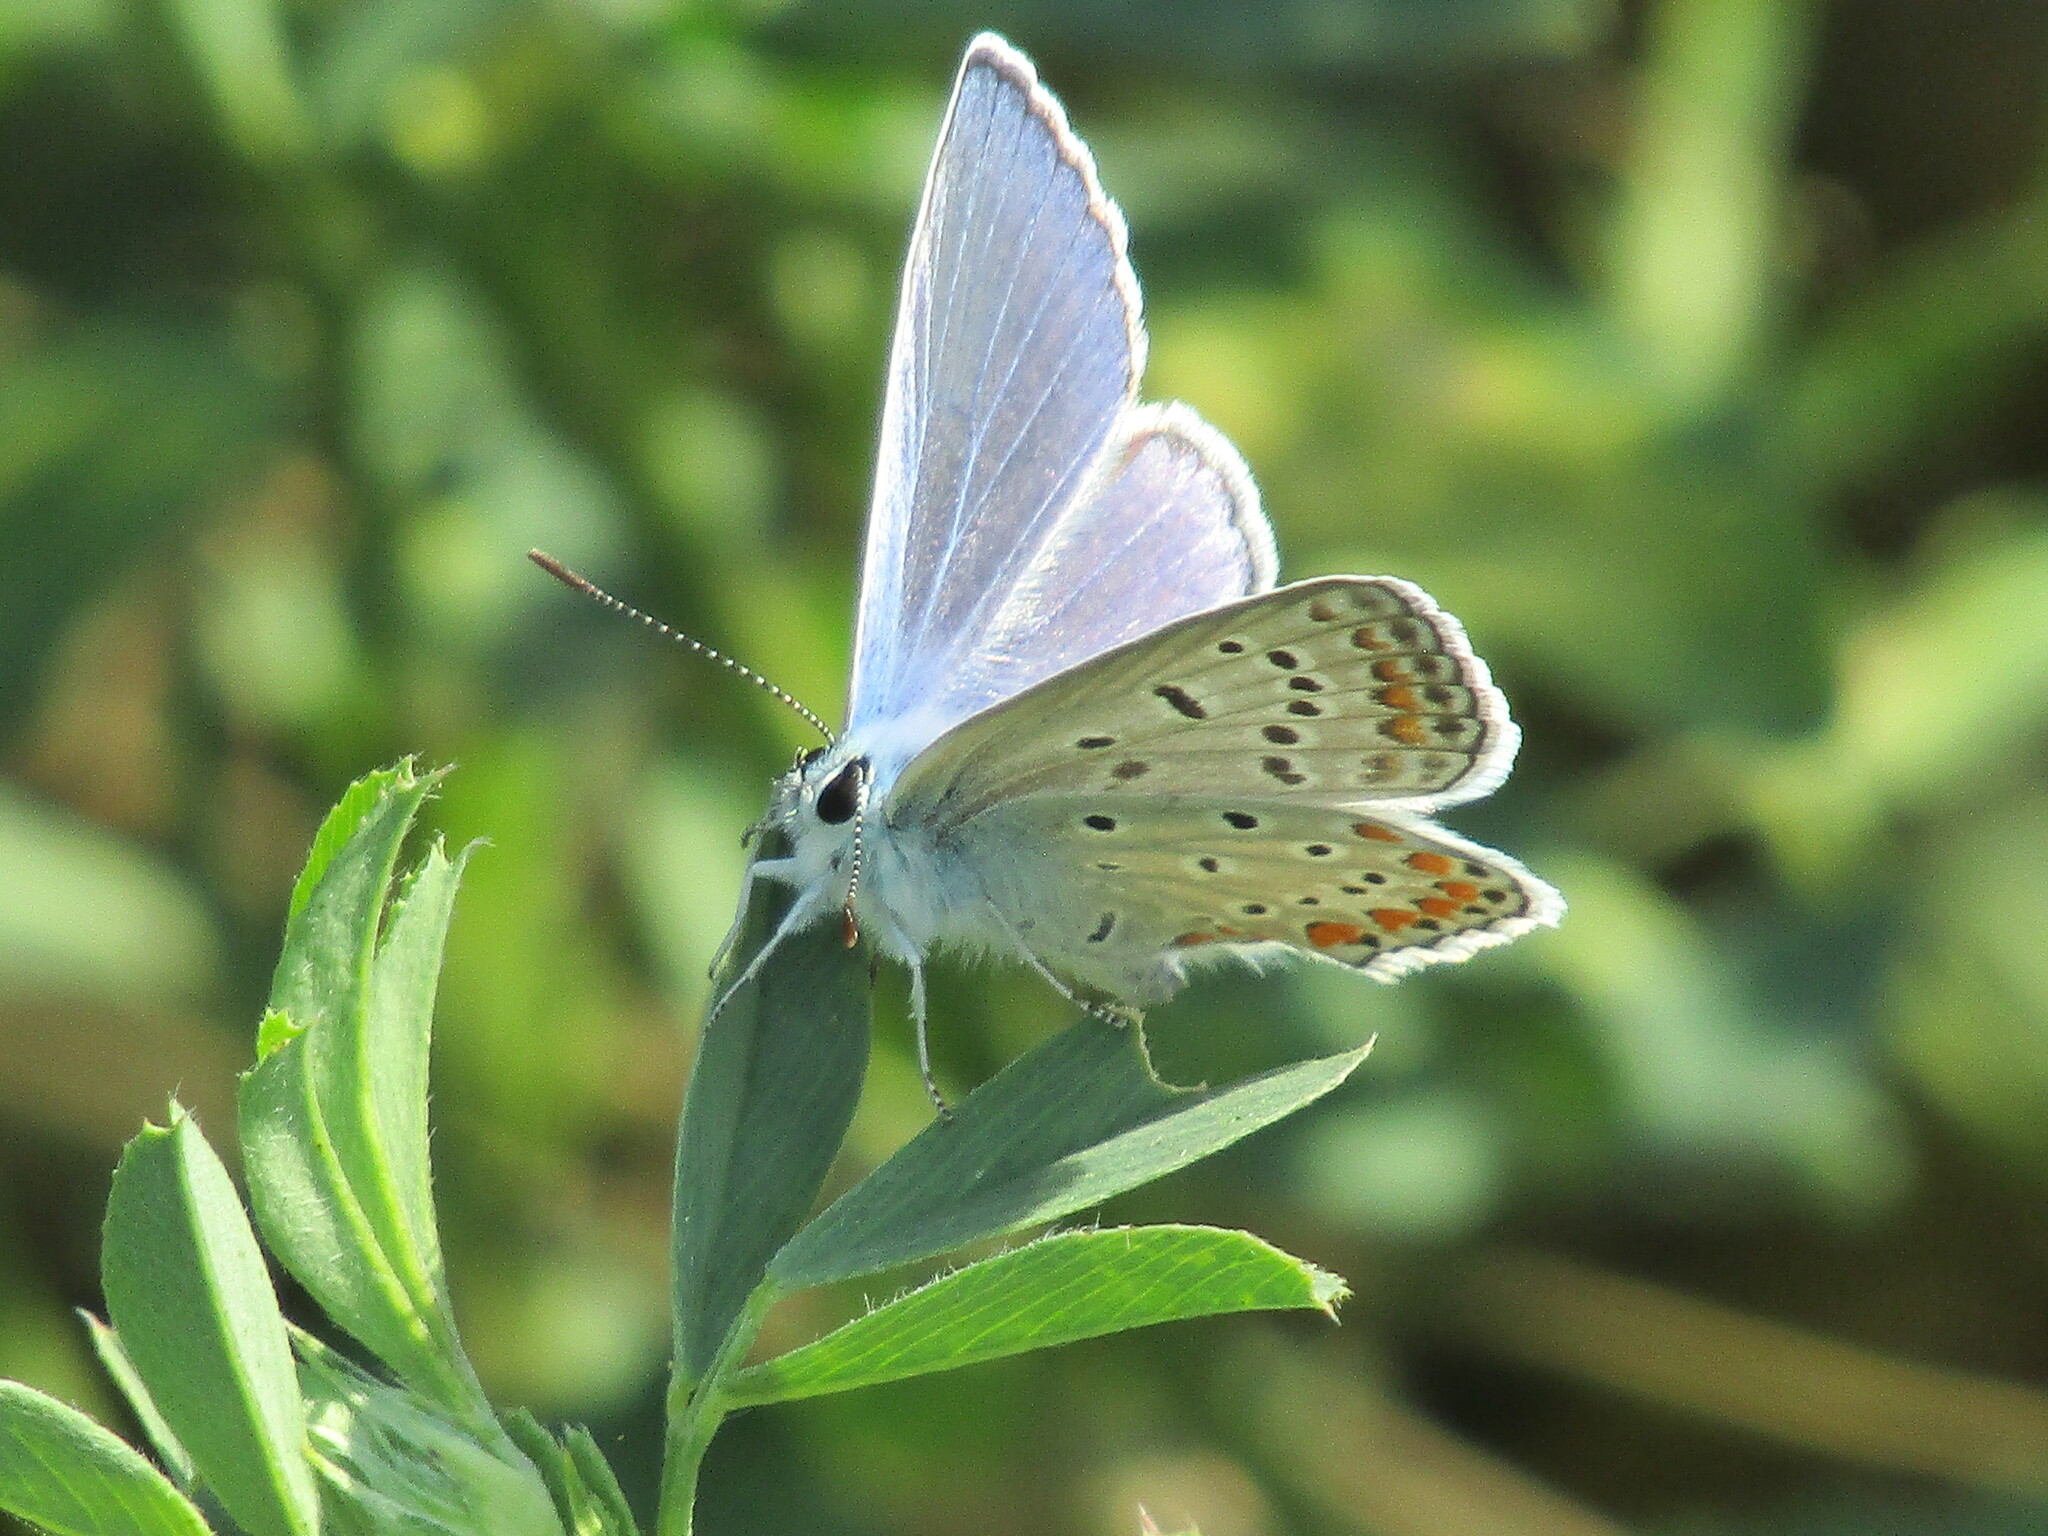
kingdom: Animalia
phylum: Arthropoda
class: Insecta
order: Lepidoptera
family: Lycaenidae
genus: Polyommatus
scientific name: Polyommatus icarus
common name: Common blue
